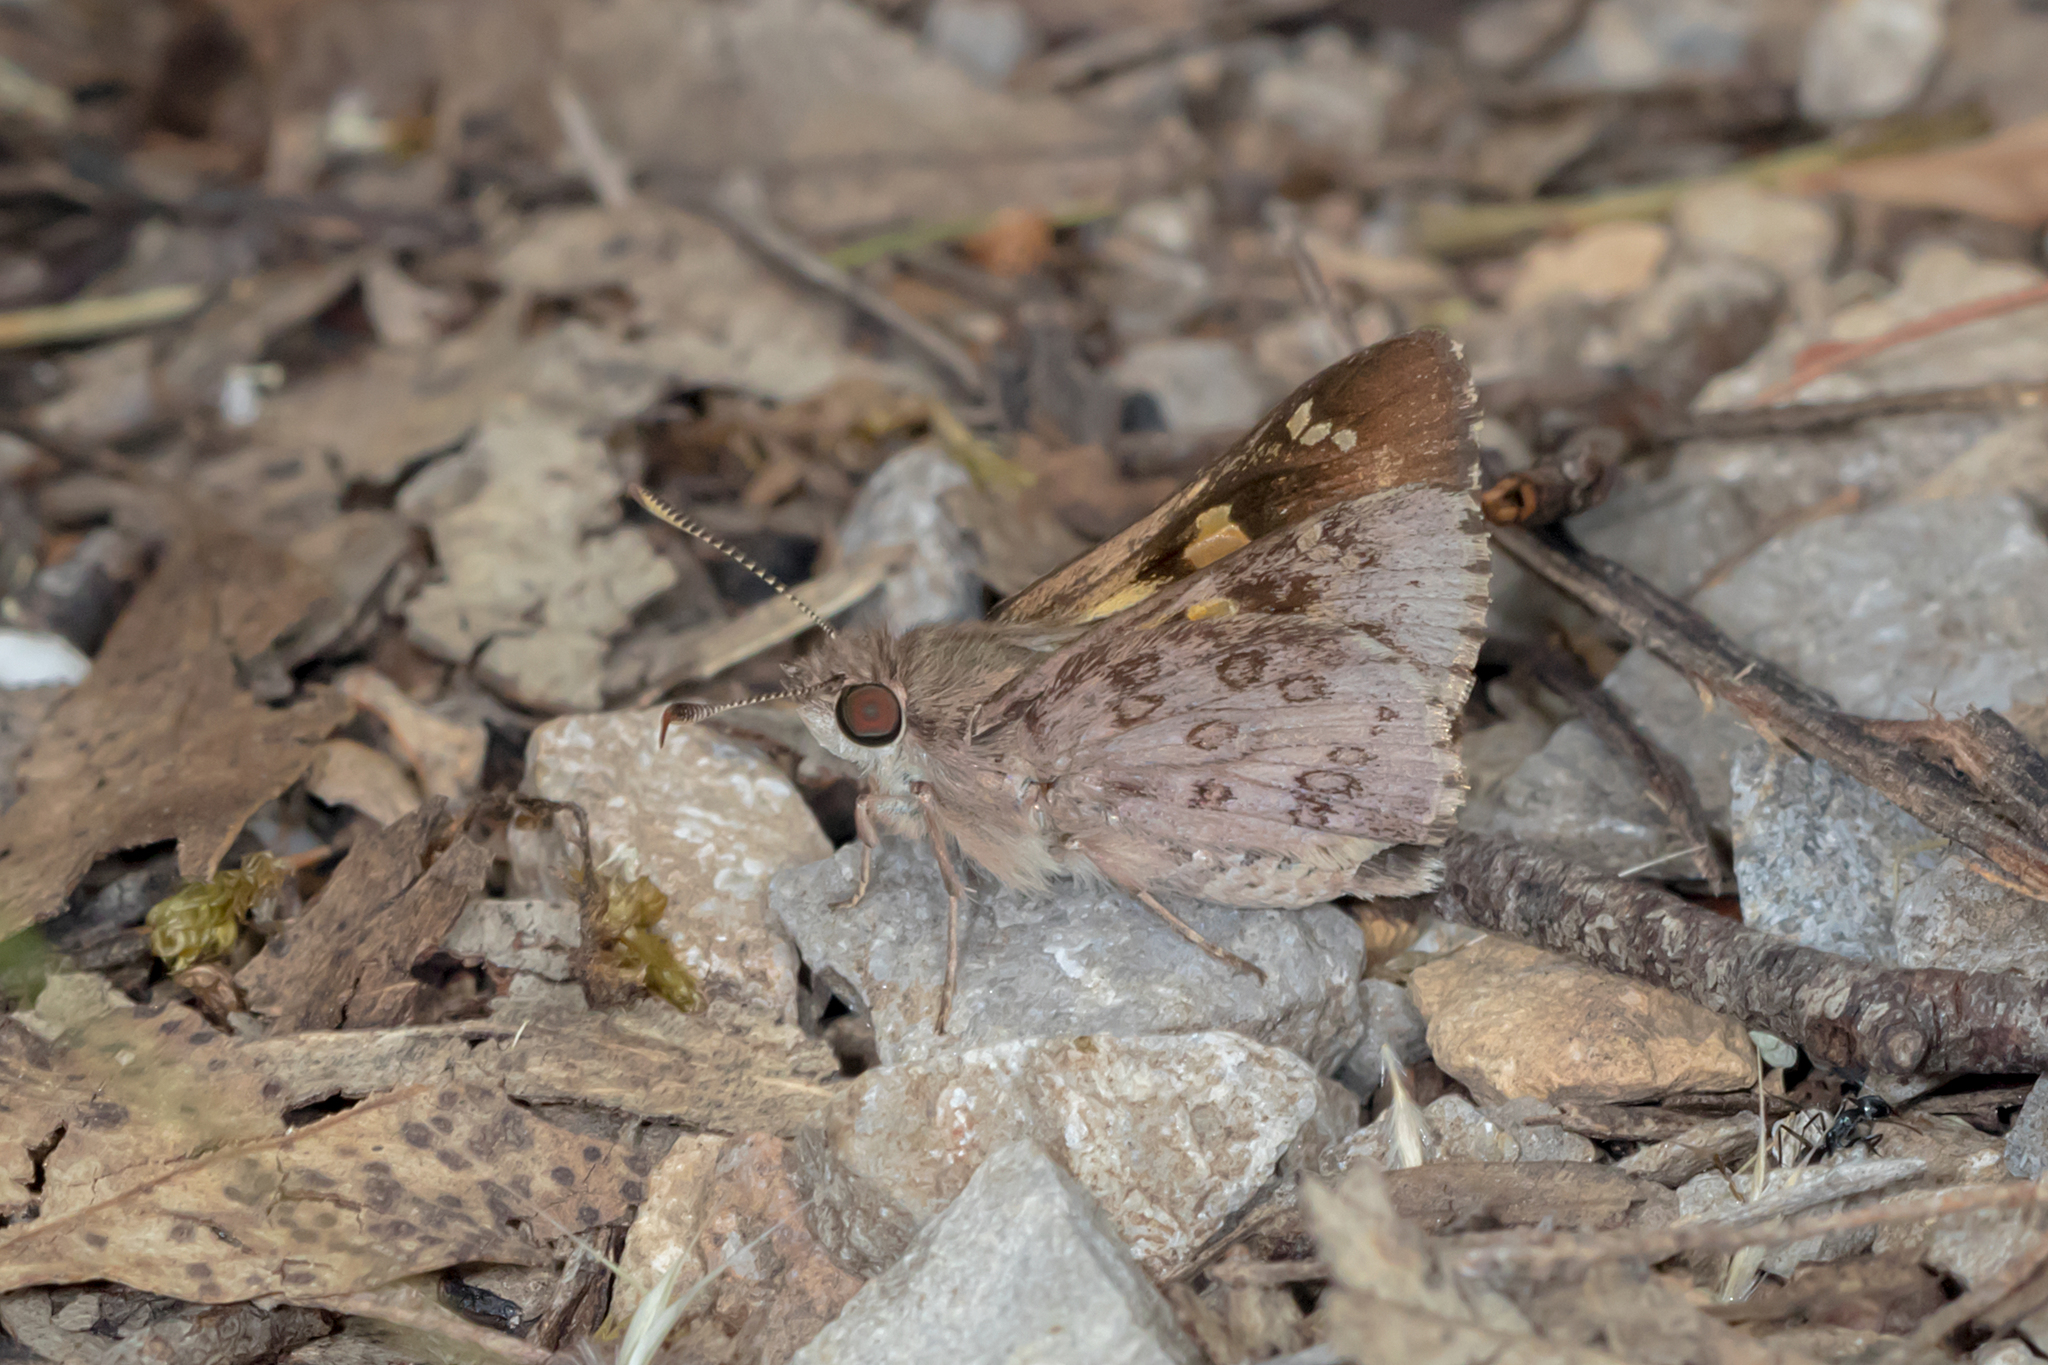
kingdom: Animalia
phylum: Arthropoda
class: Insecta
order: Lepidoptera
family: Hesperiidae
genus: Trapezites
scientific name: Trapezites phigalioides
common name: Montane ochre
